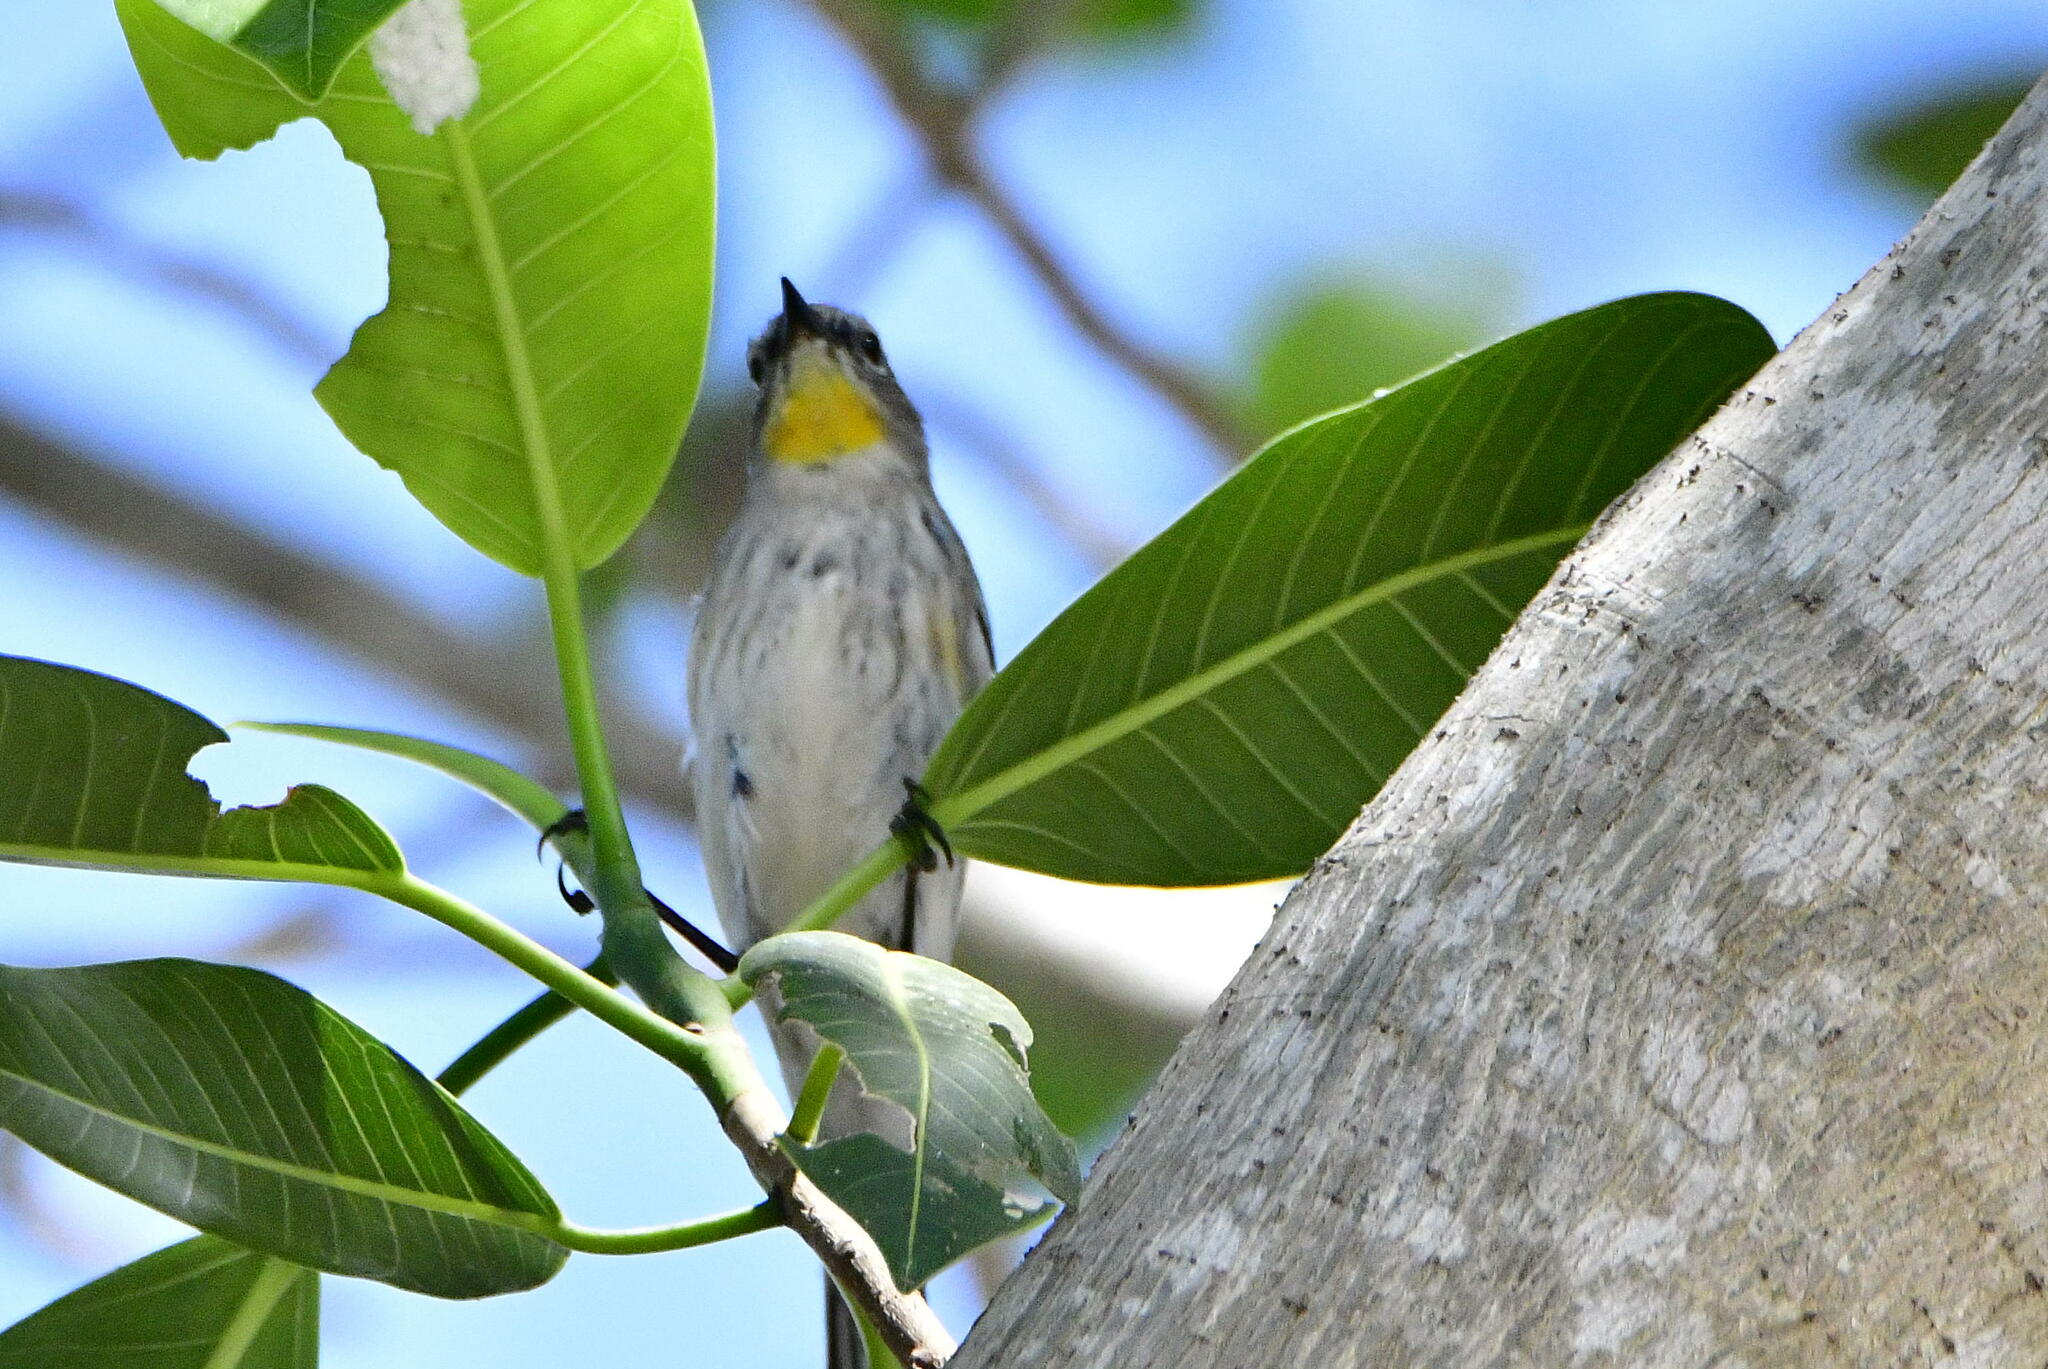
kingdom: Animalia
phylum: Chordata
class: Aves
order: Passeriformes
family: Parulidae
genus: Setophaga
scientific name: Setophaga coronata
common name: Myrtle warbler
